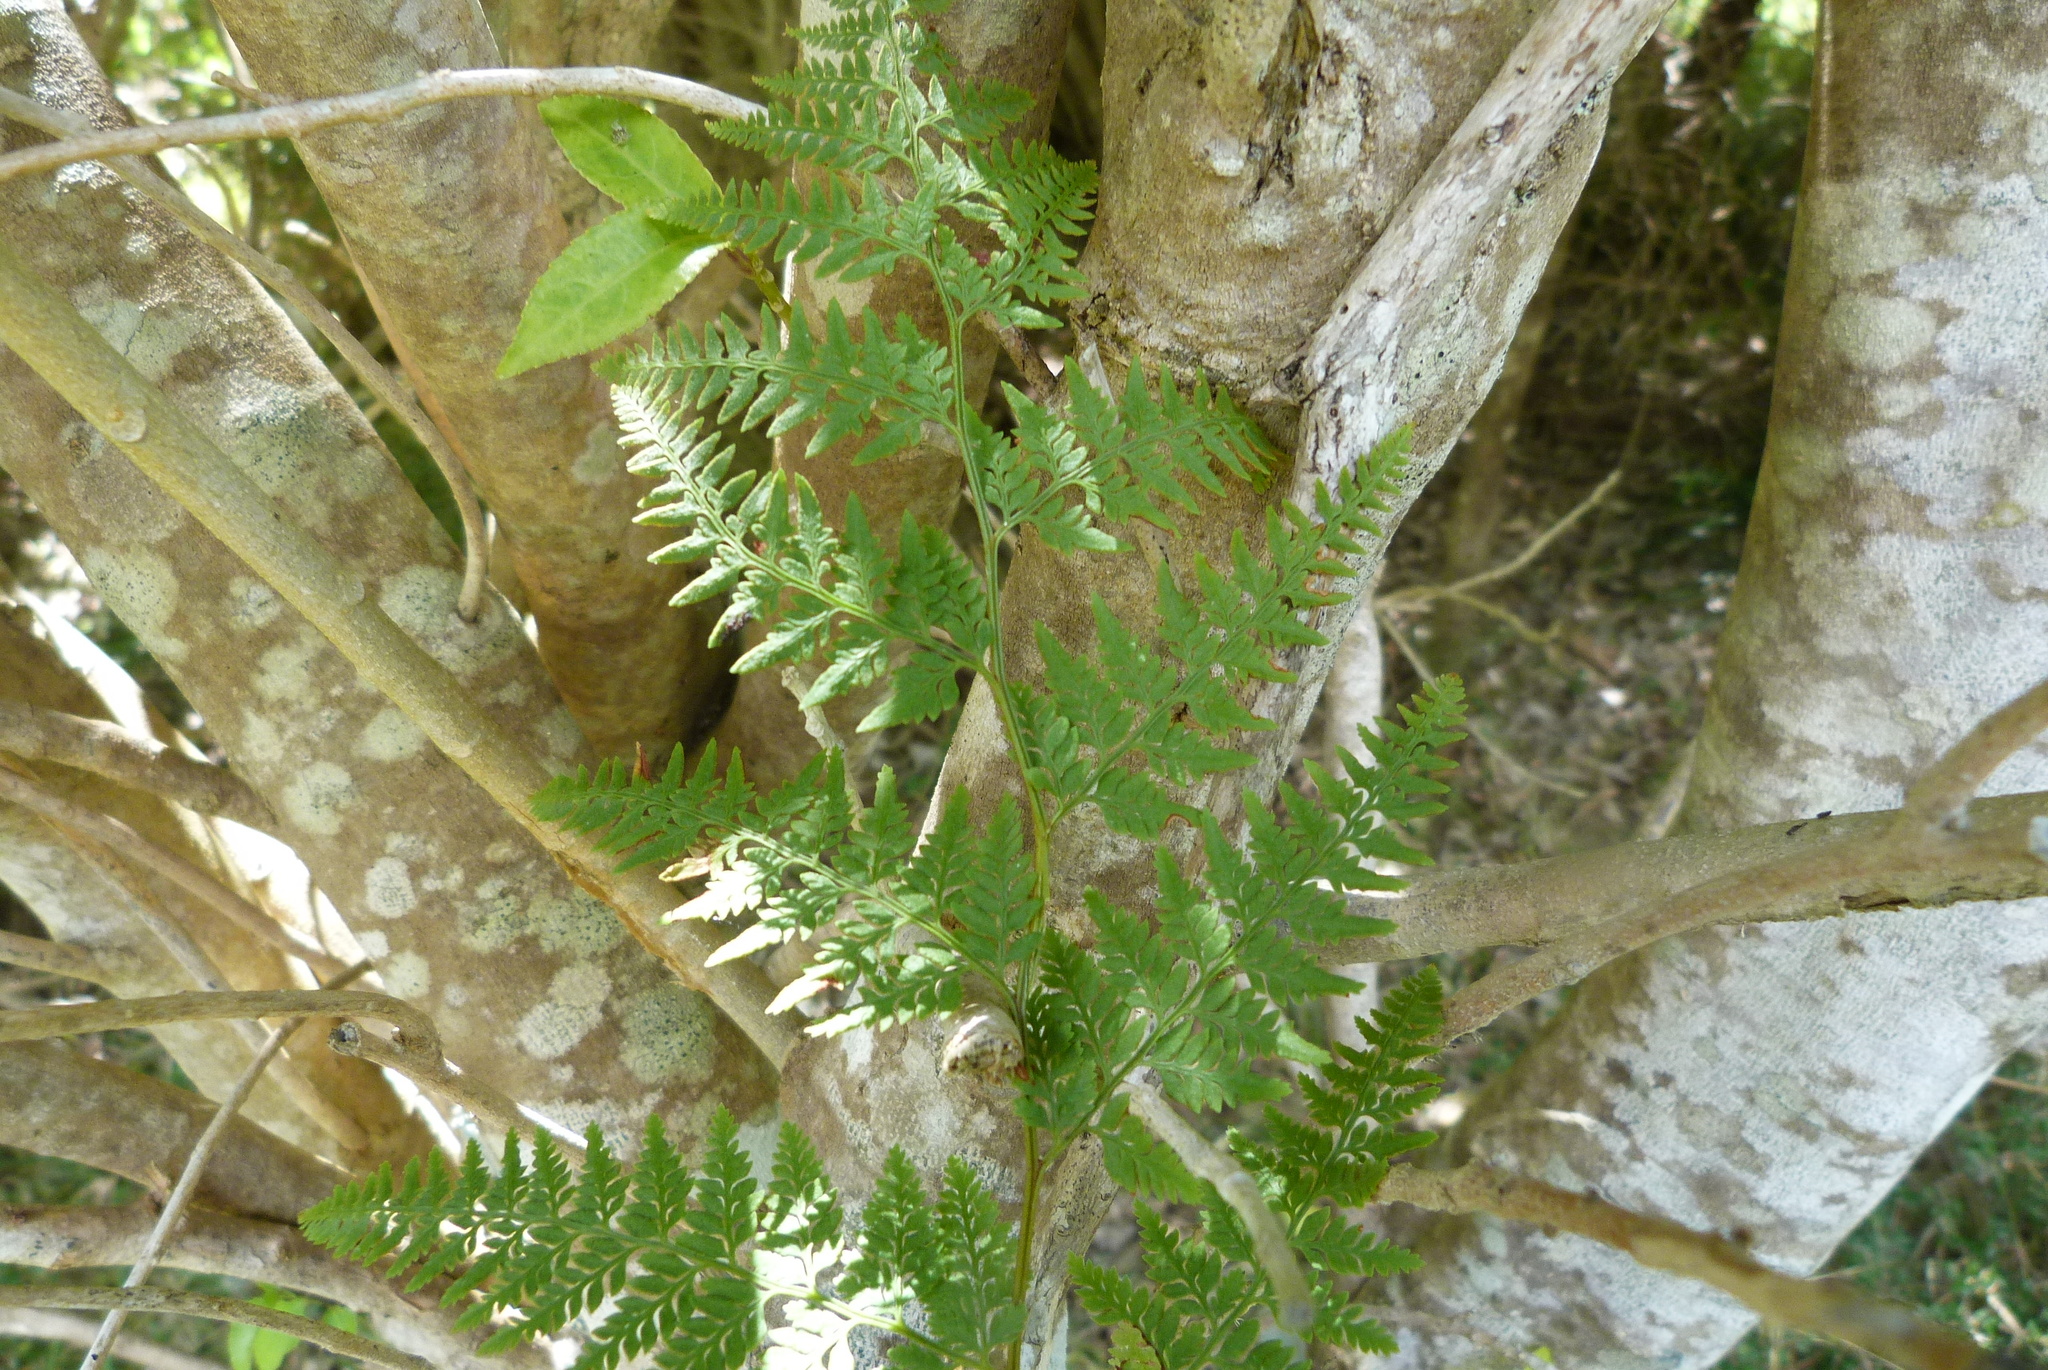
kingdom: Plantae
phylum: Tracheophyta
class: Polypodiopsida
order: Polypodiales
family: Dennstaedtiaceae
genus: Paesia
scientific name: Paesia scaberula
